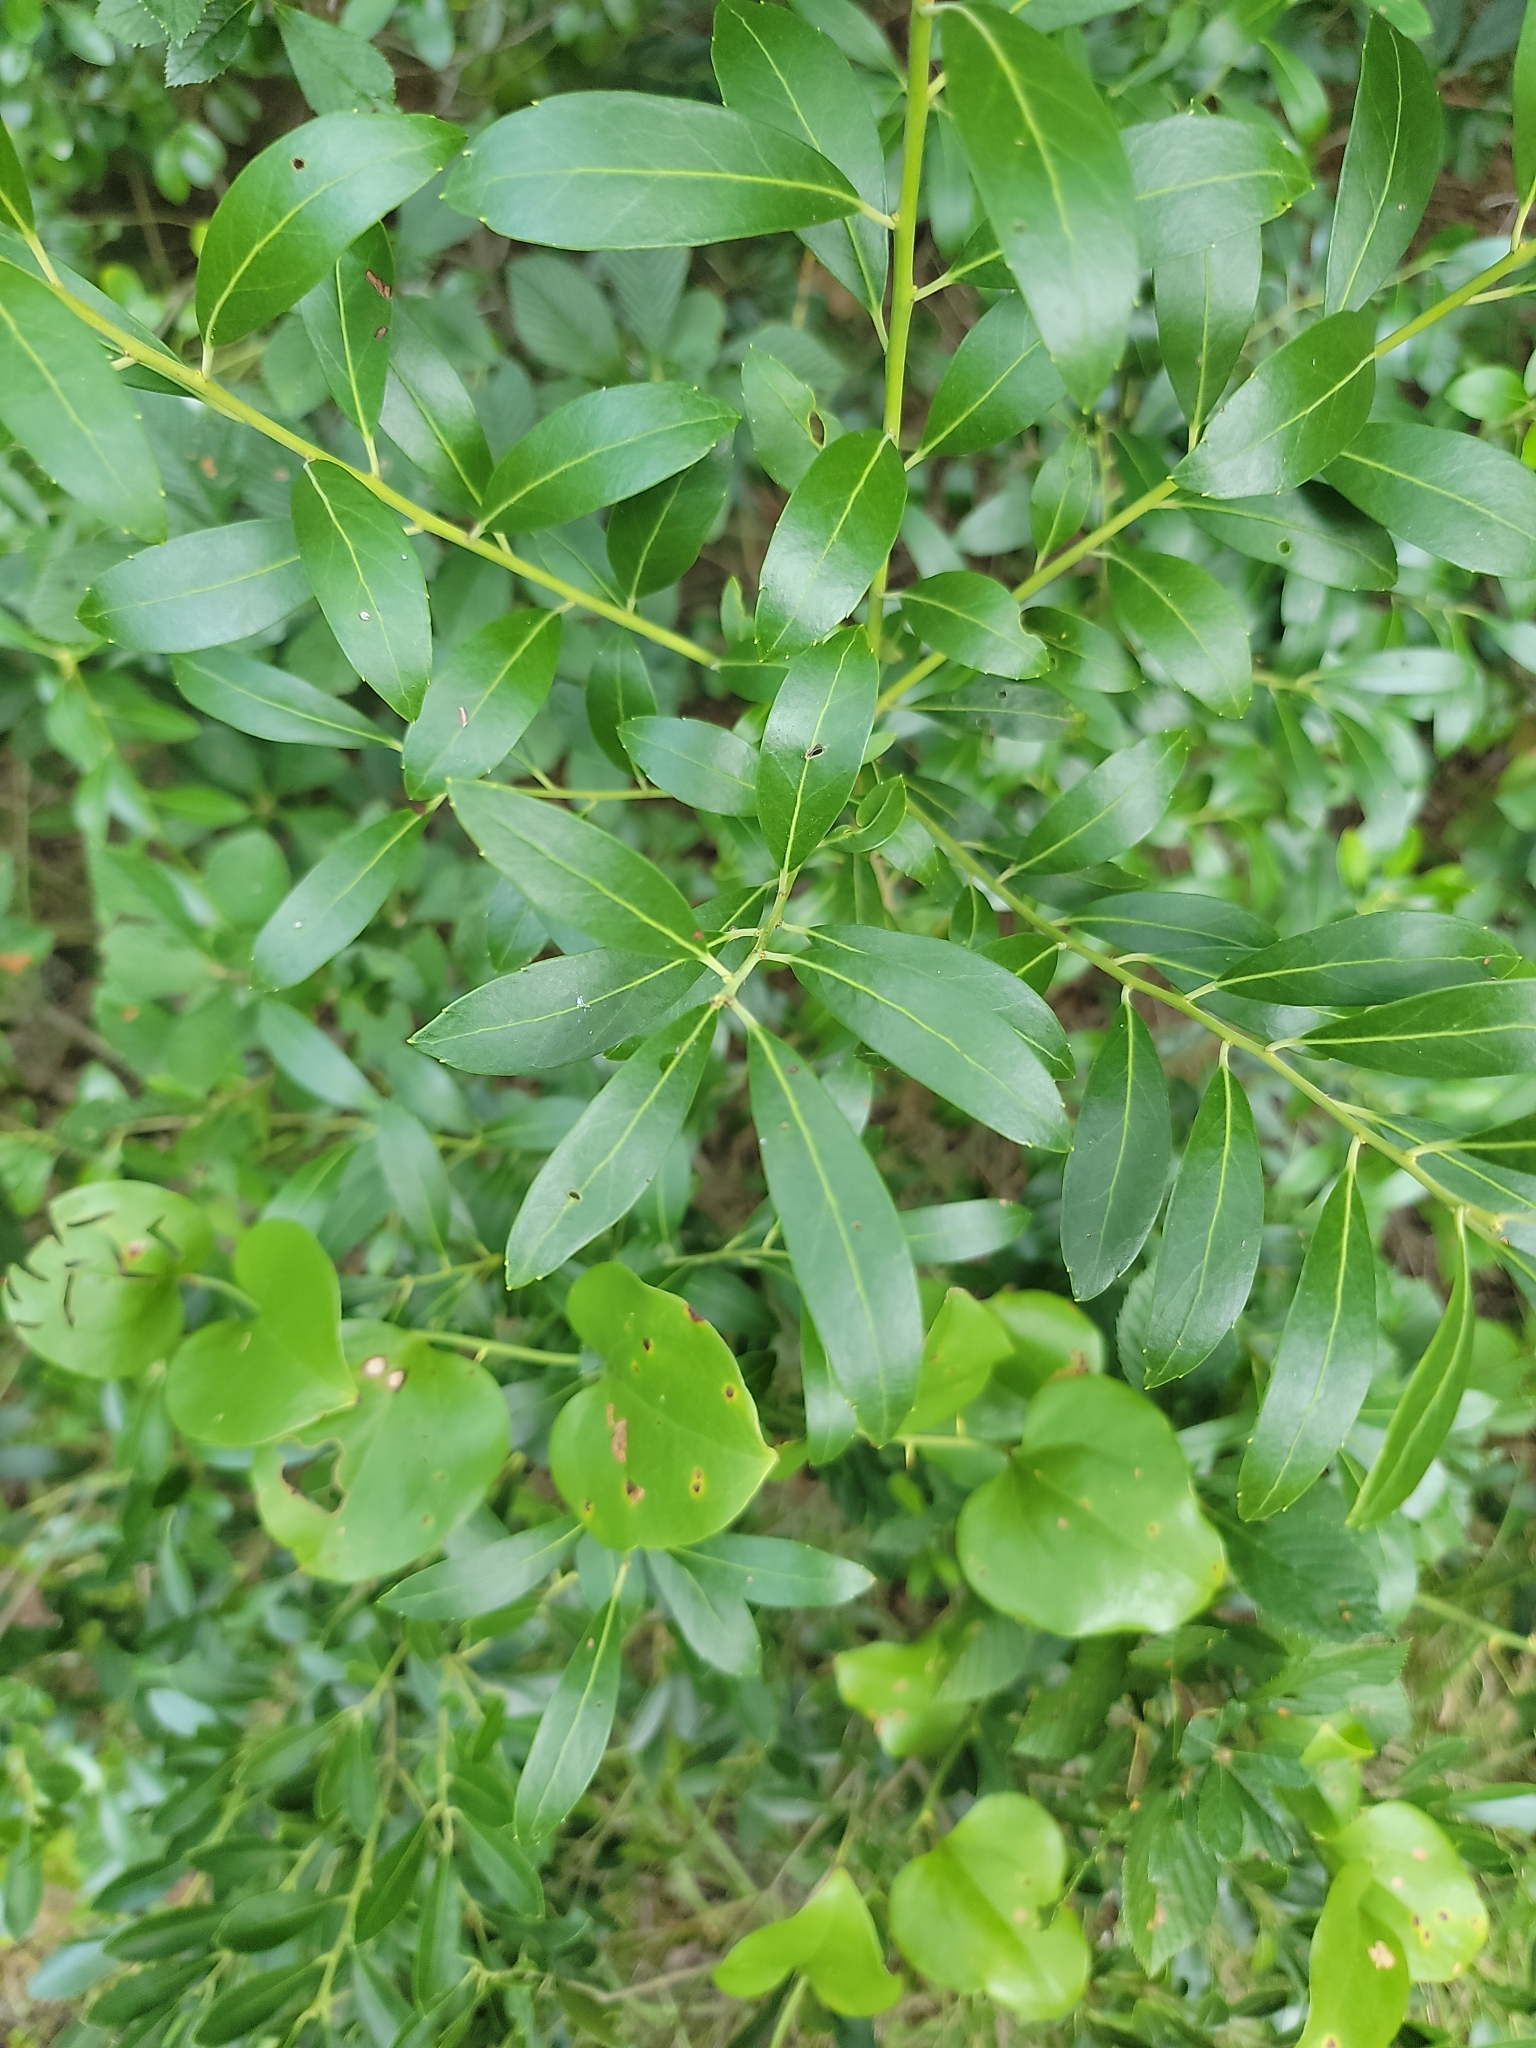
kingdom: Plantae
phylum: Tracheophyta
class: Magnoliopsida
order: Aquifoliales
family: Aquifoliaceae
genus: Ilex
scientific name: Ilex glabra
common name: Bitter gallberry
